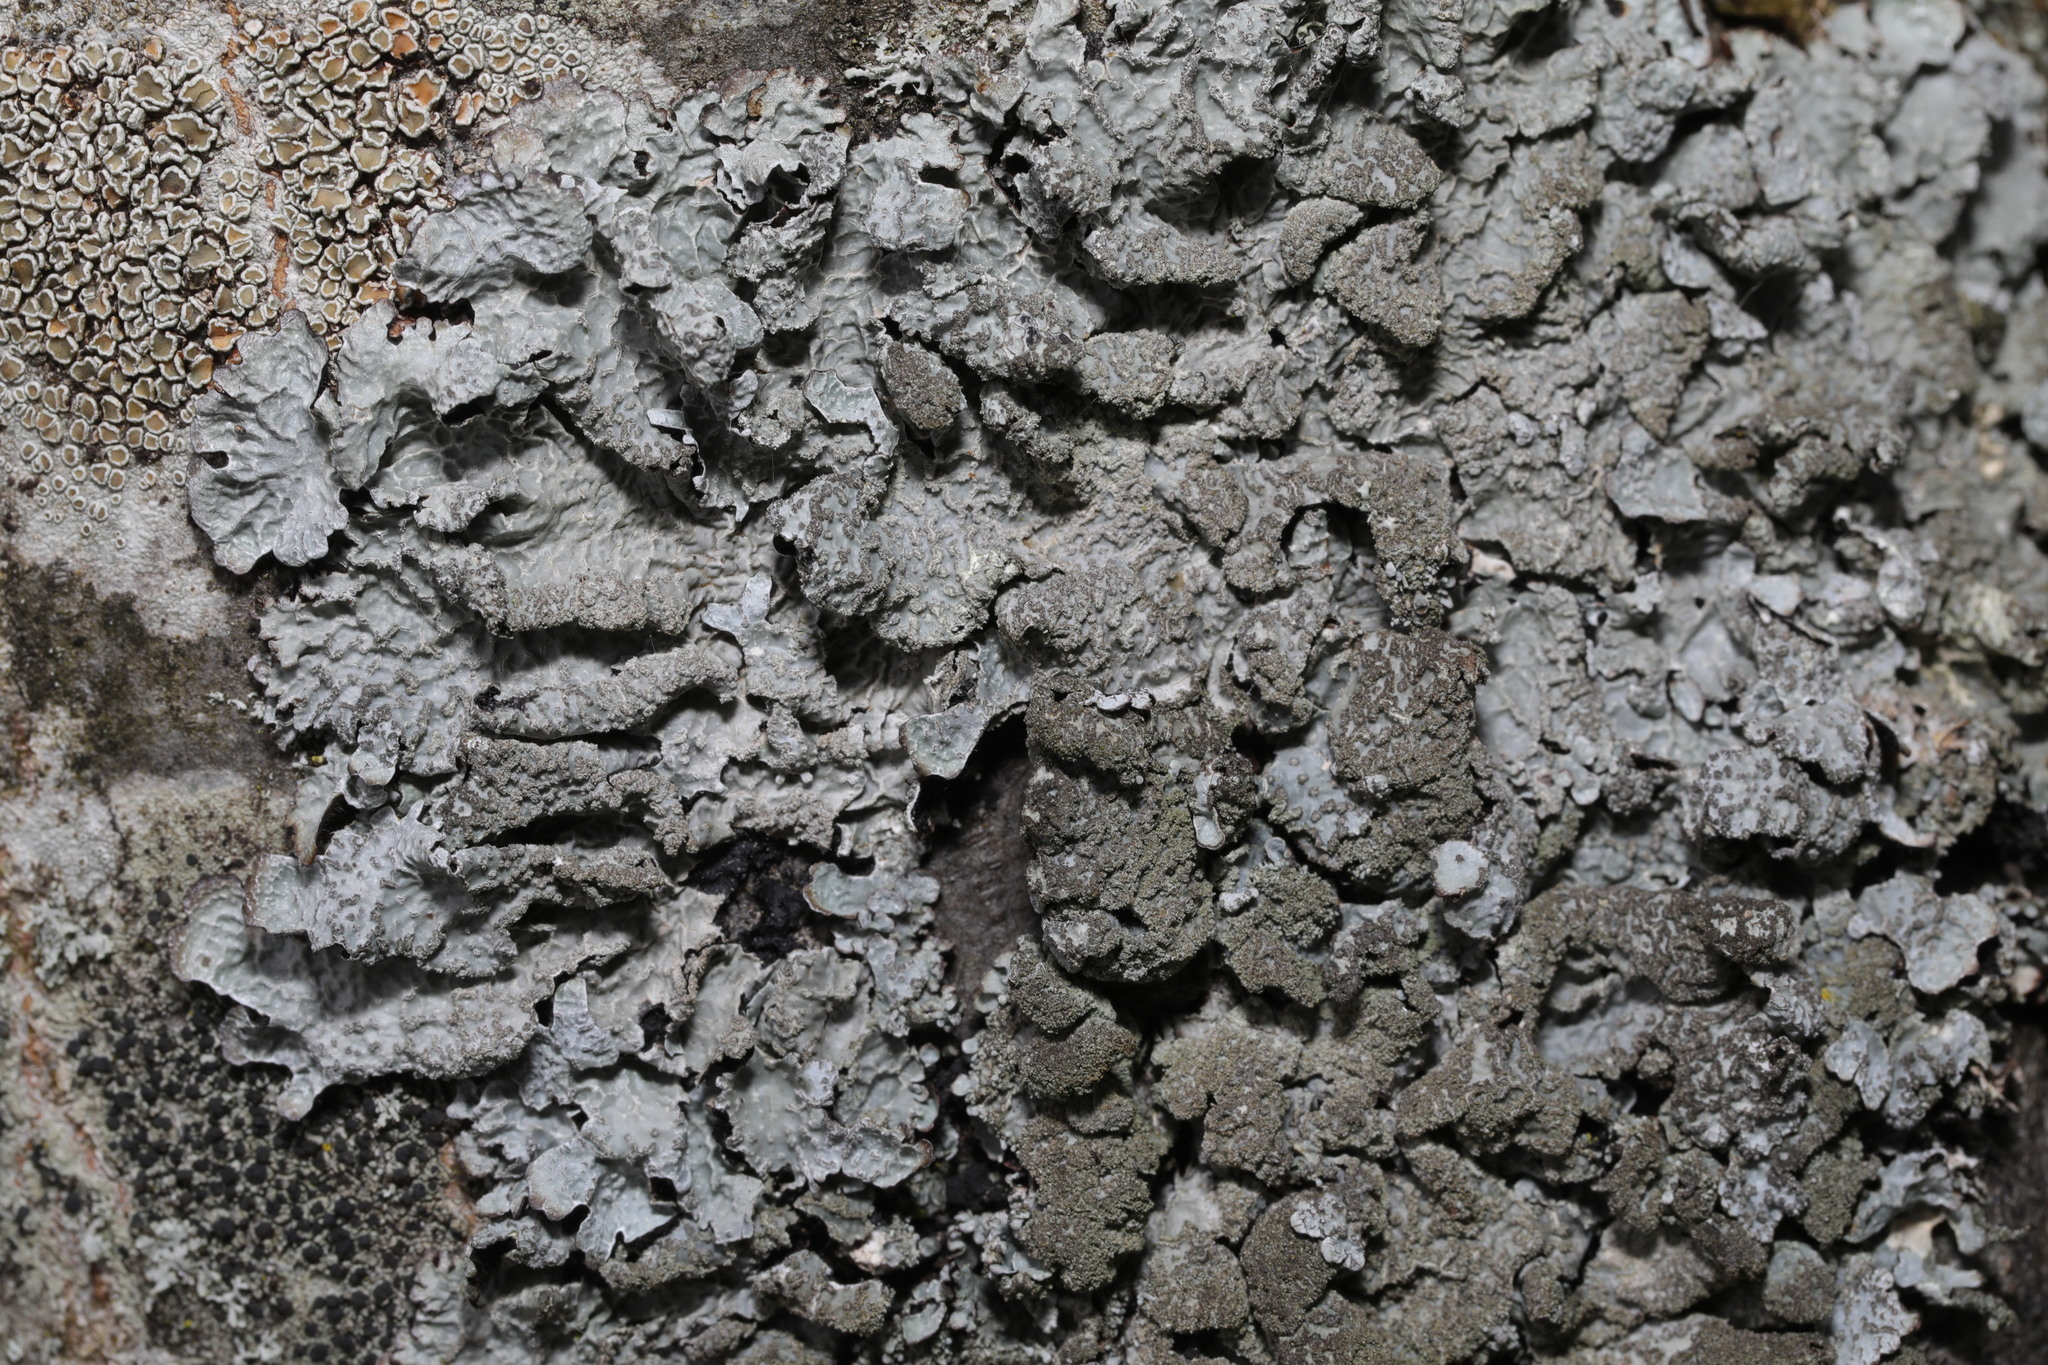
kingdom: Fungi
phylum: Ascomycota
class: Lecanoromycetes
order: Lecanorales
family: Parmeliaceae
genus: Parmelia
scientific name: Parmelia sulcata
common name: Netted shield lichen
